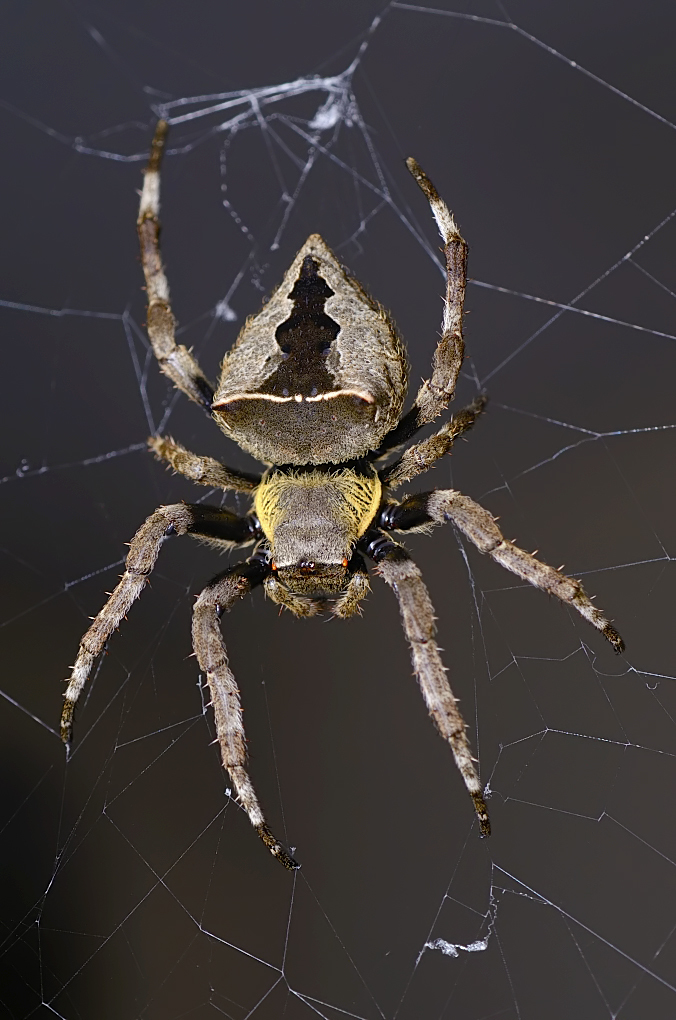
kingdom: Animalia
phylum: Arthropoda
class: Arachnida
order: Araneae
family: Araneidae
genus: Parawixia
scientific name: Parawixia dehaani
